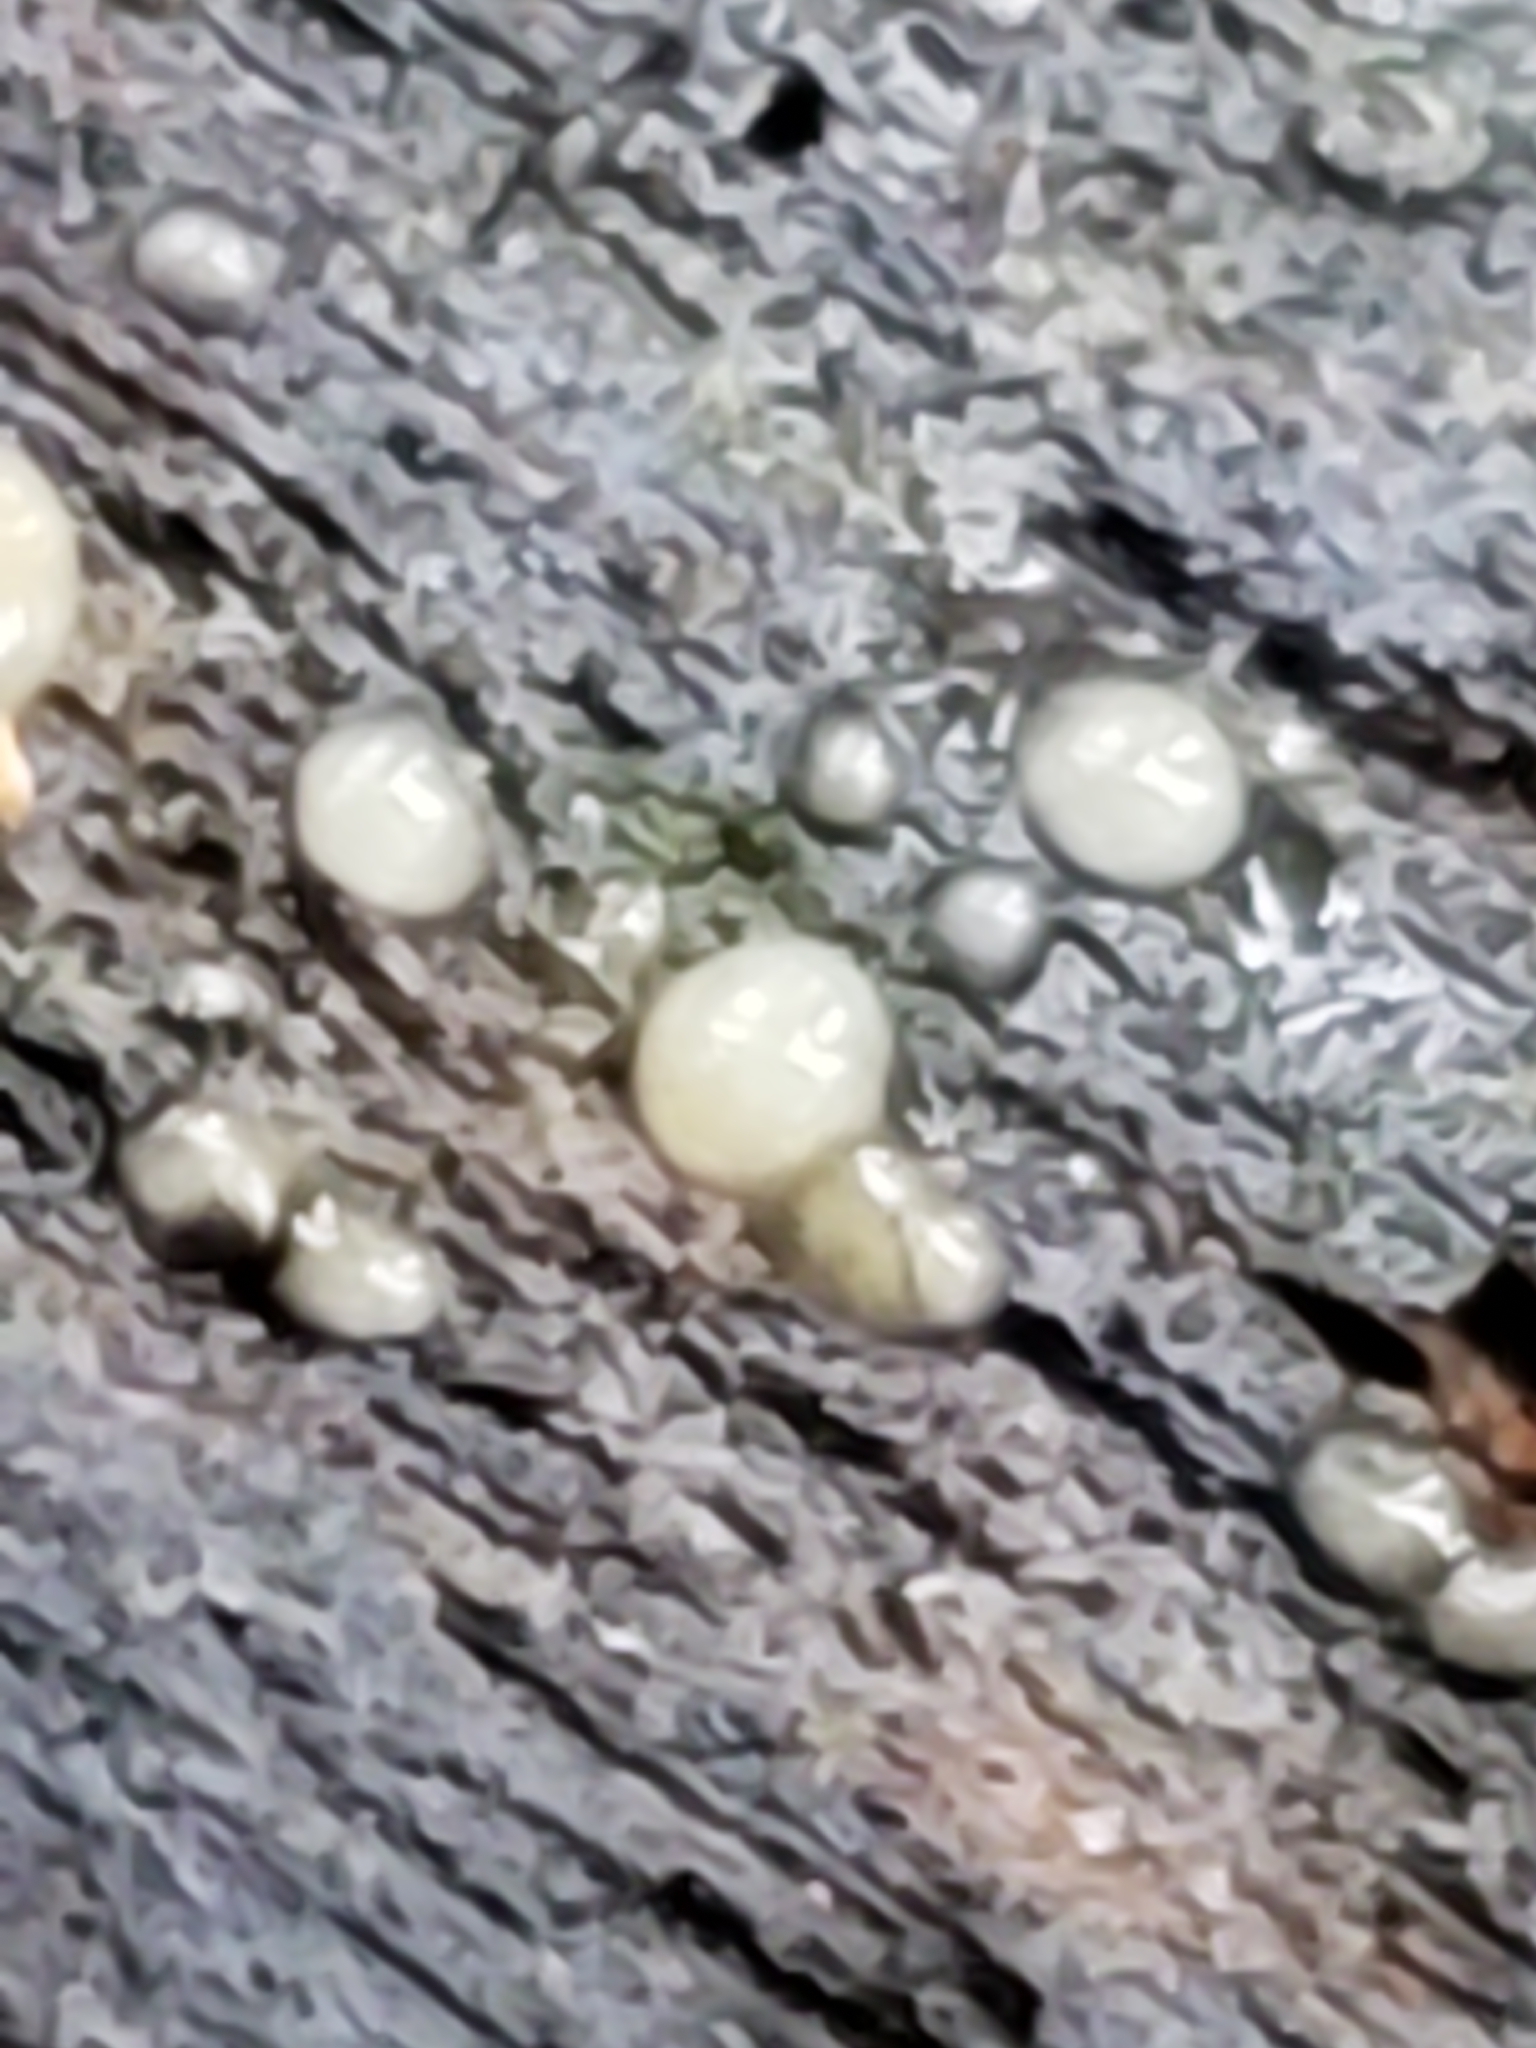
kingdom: Fungi
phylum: Basidiomycota
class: Atractiellomycetes
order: Atractiellales
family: Phleogenaceae
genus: Helicogloea
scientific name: Helicogloea compressa
